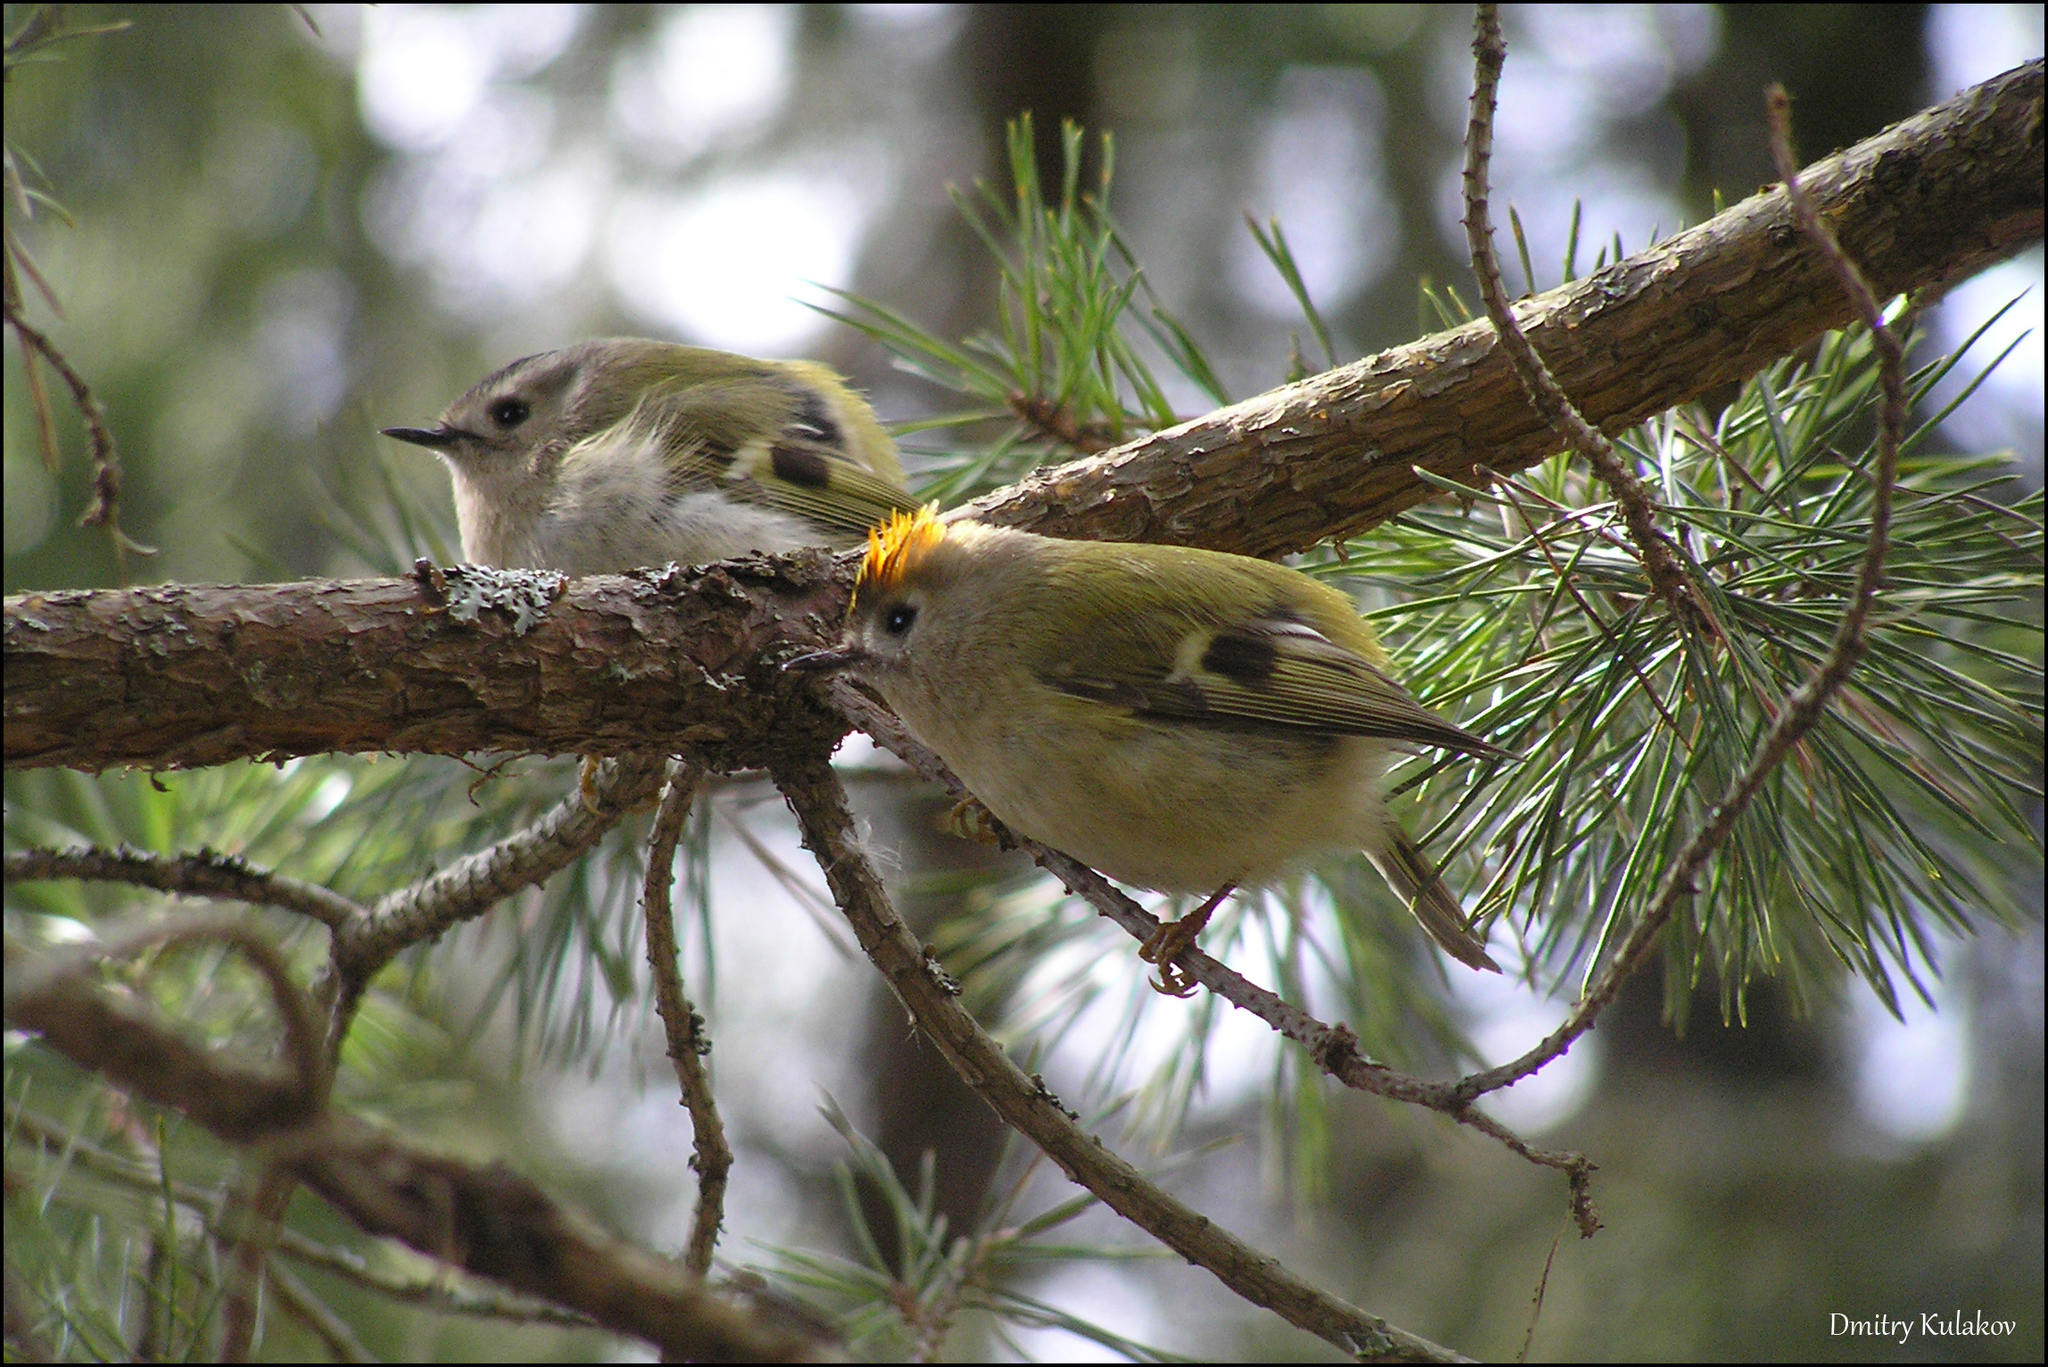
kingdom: Animalia
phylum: Chordata
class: Aves
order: Passeriformes
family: Regulidae
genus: Regulus
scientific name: Regulus regulus
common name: Goldcrest
